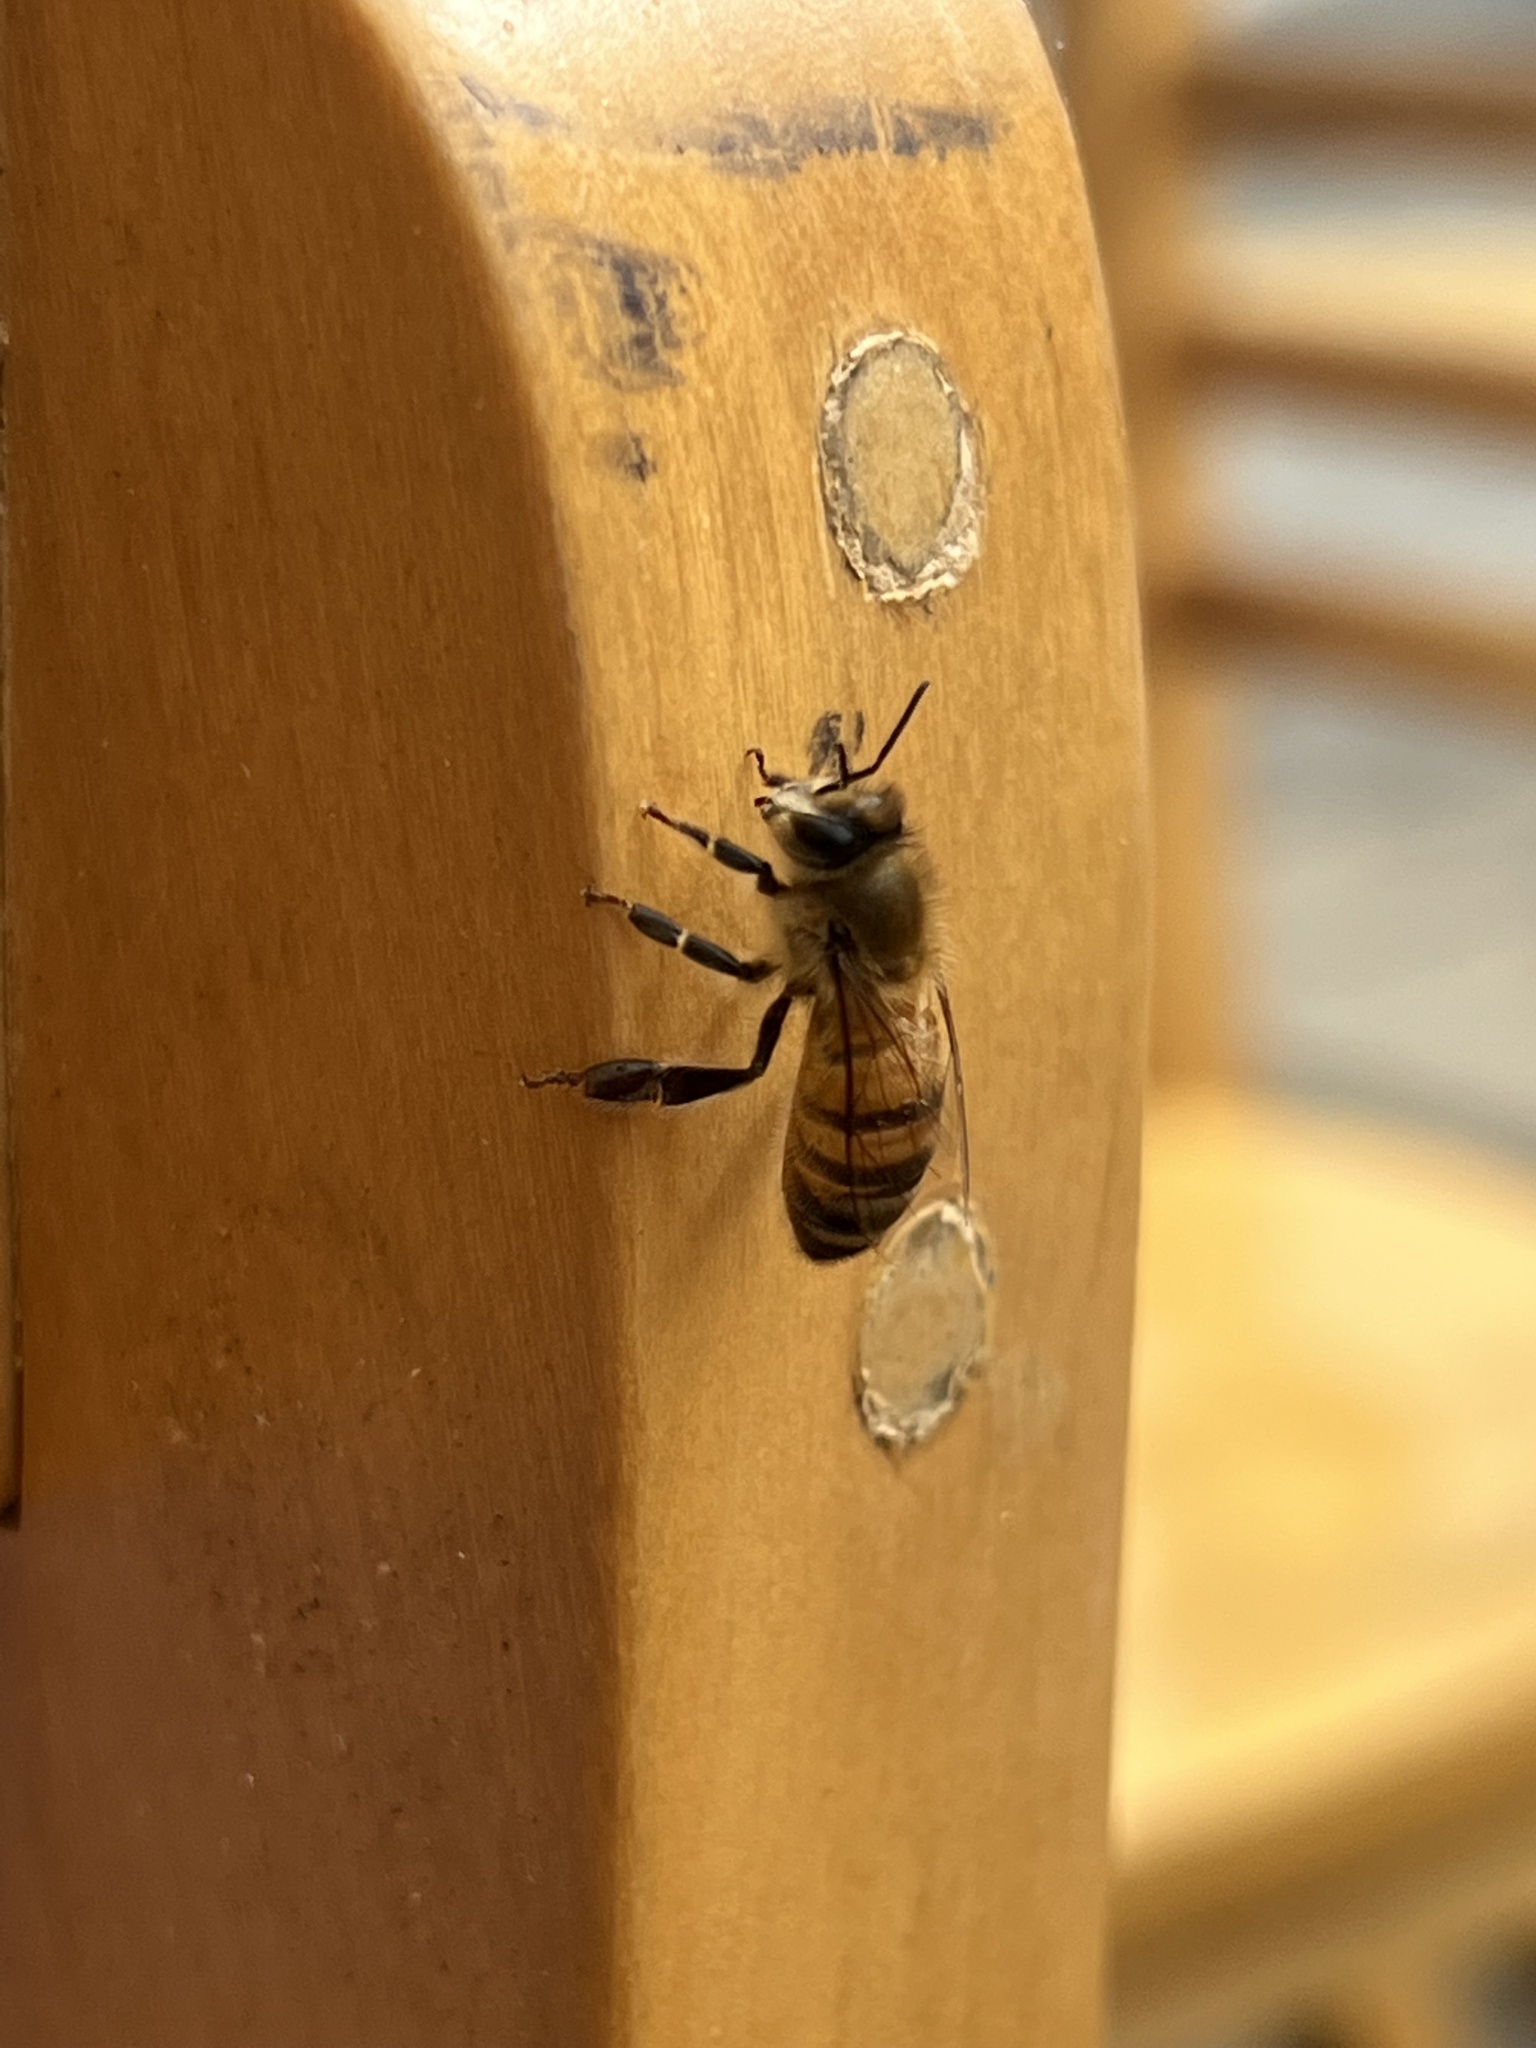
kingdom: Animalia
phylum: Arthropoda
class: Insecta
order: Hymenoptera
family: Apidae
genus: Apis
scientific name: Apis mellifera
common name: Honey bee
